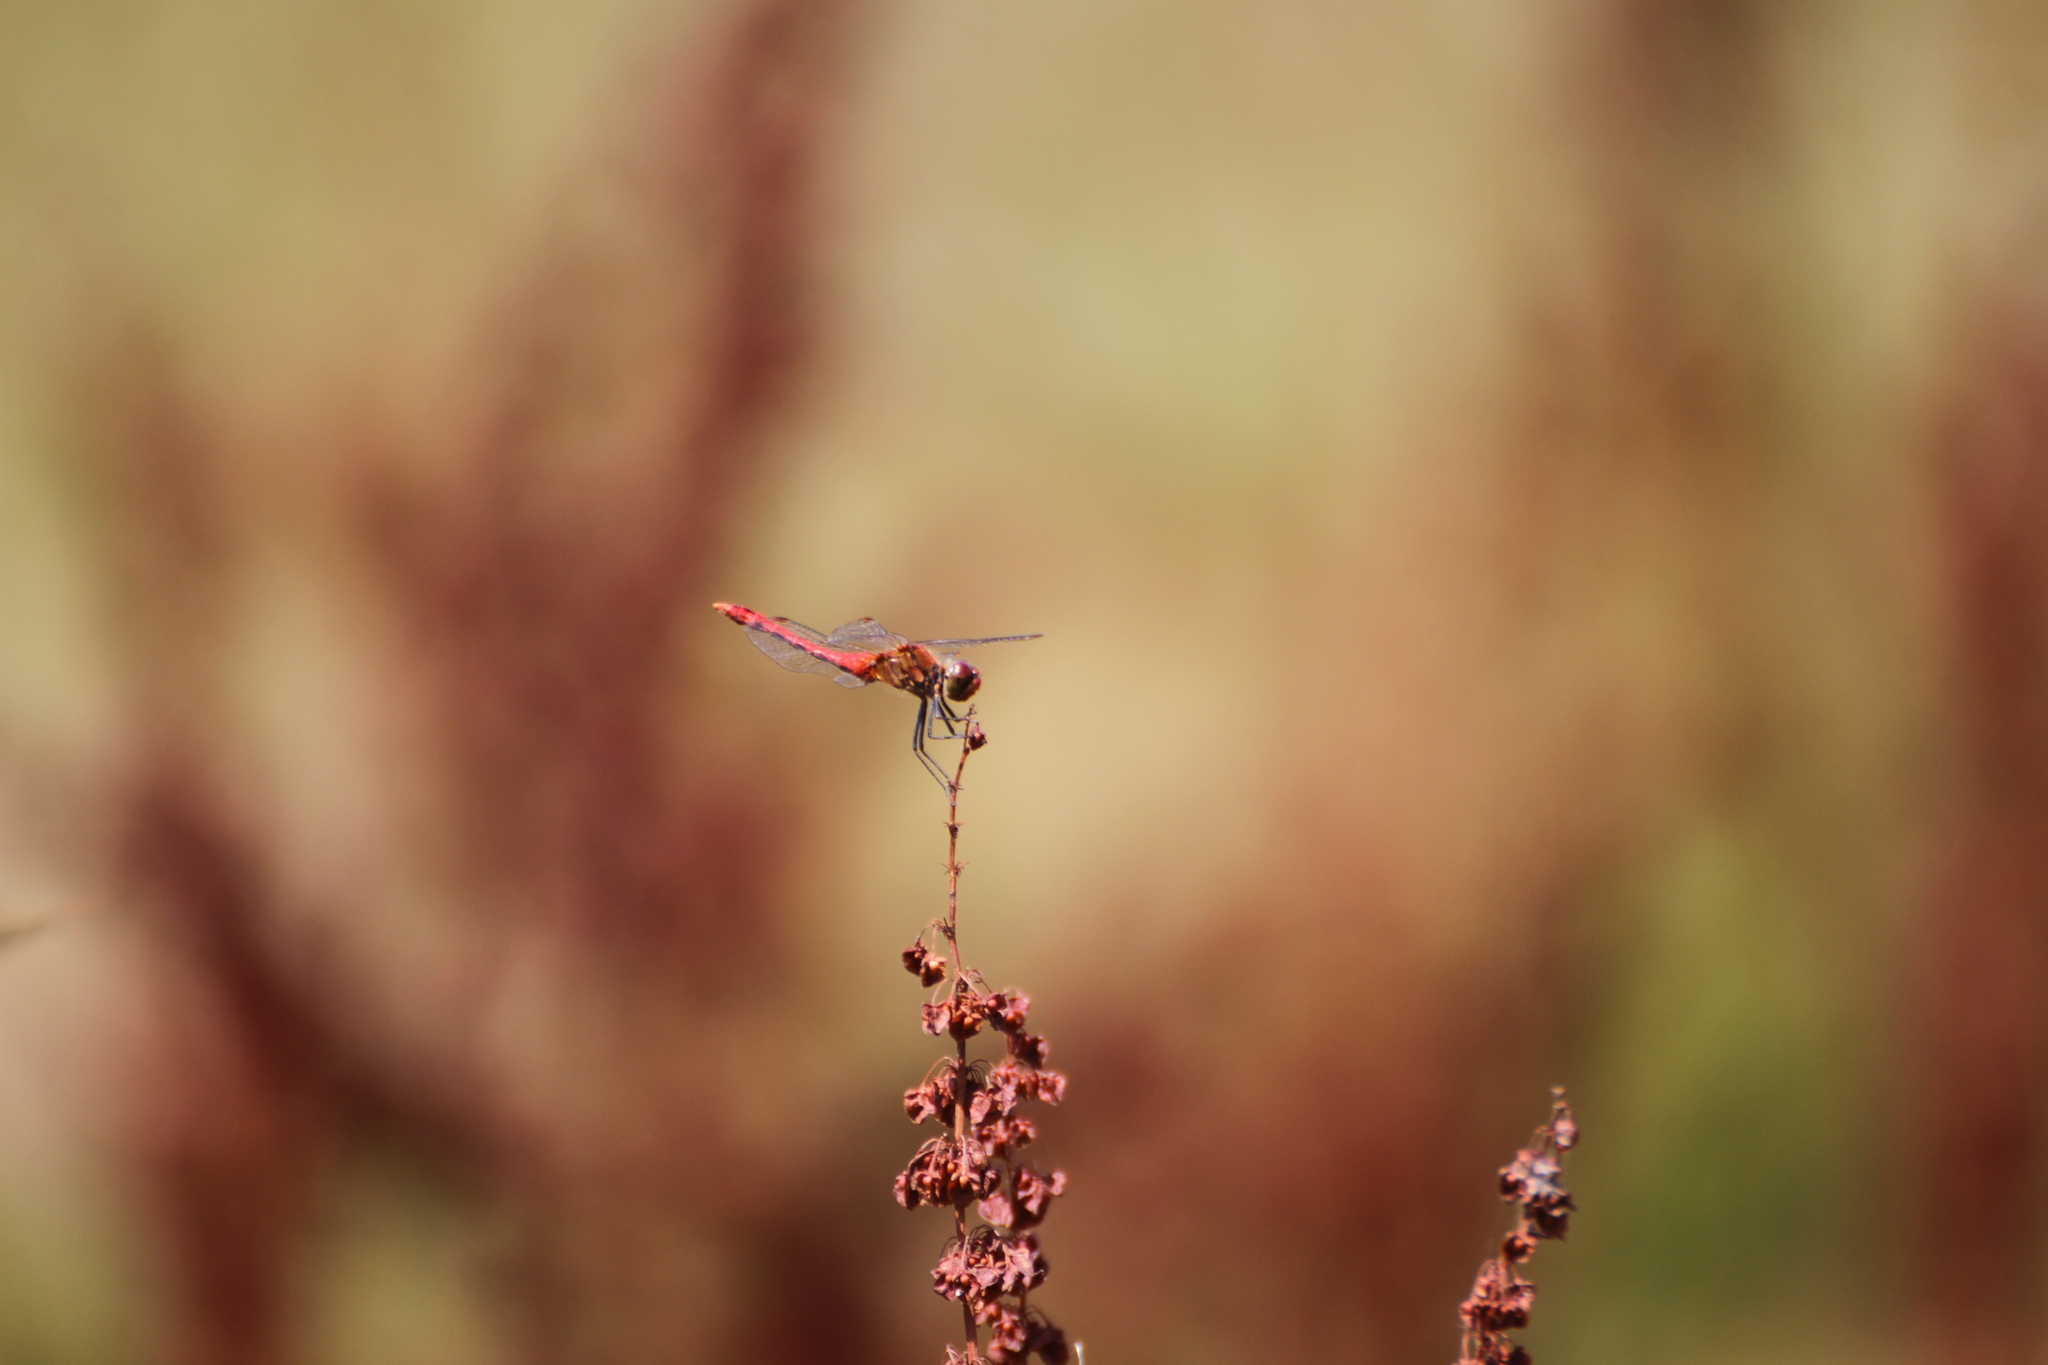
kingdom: Animalia
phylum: Arthropoda
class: Insecta
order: Odonata
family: Libellulidae
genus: Sympetrum
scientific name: Sympetrum sanguineum
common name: Ruddy darter
